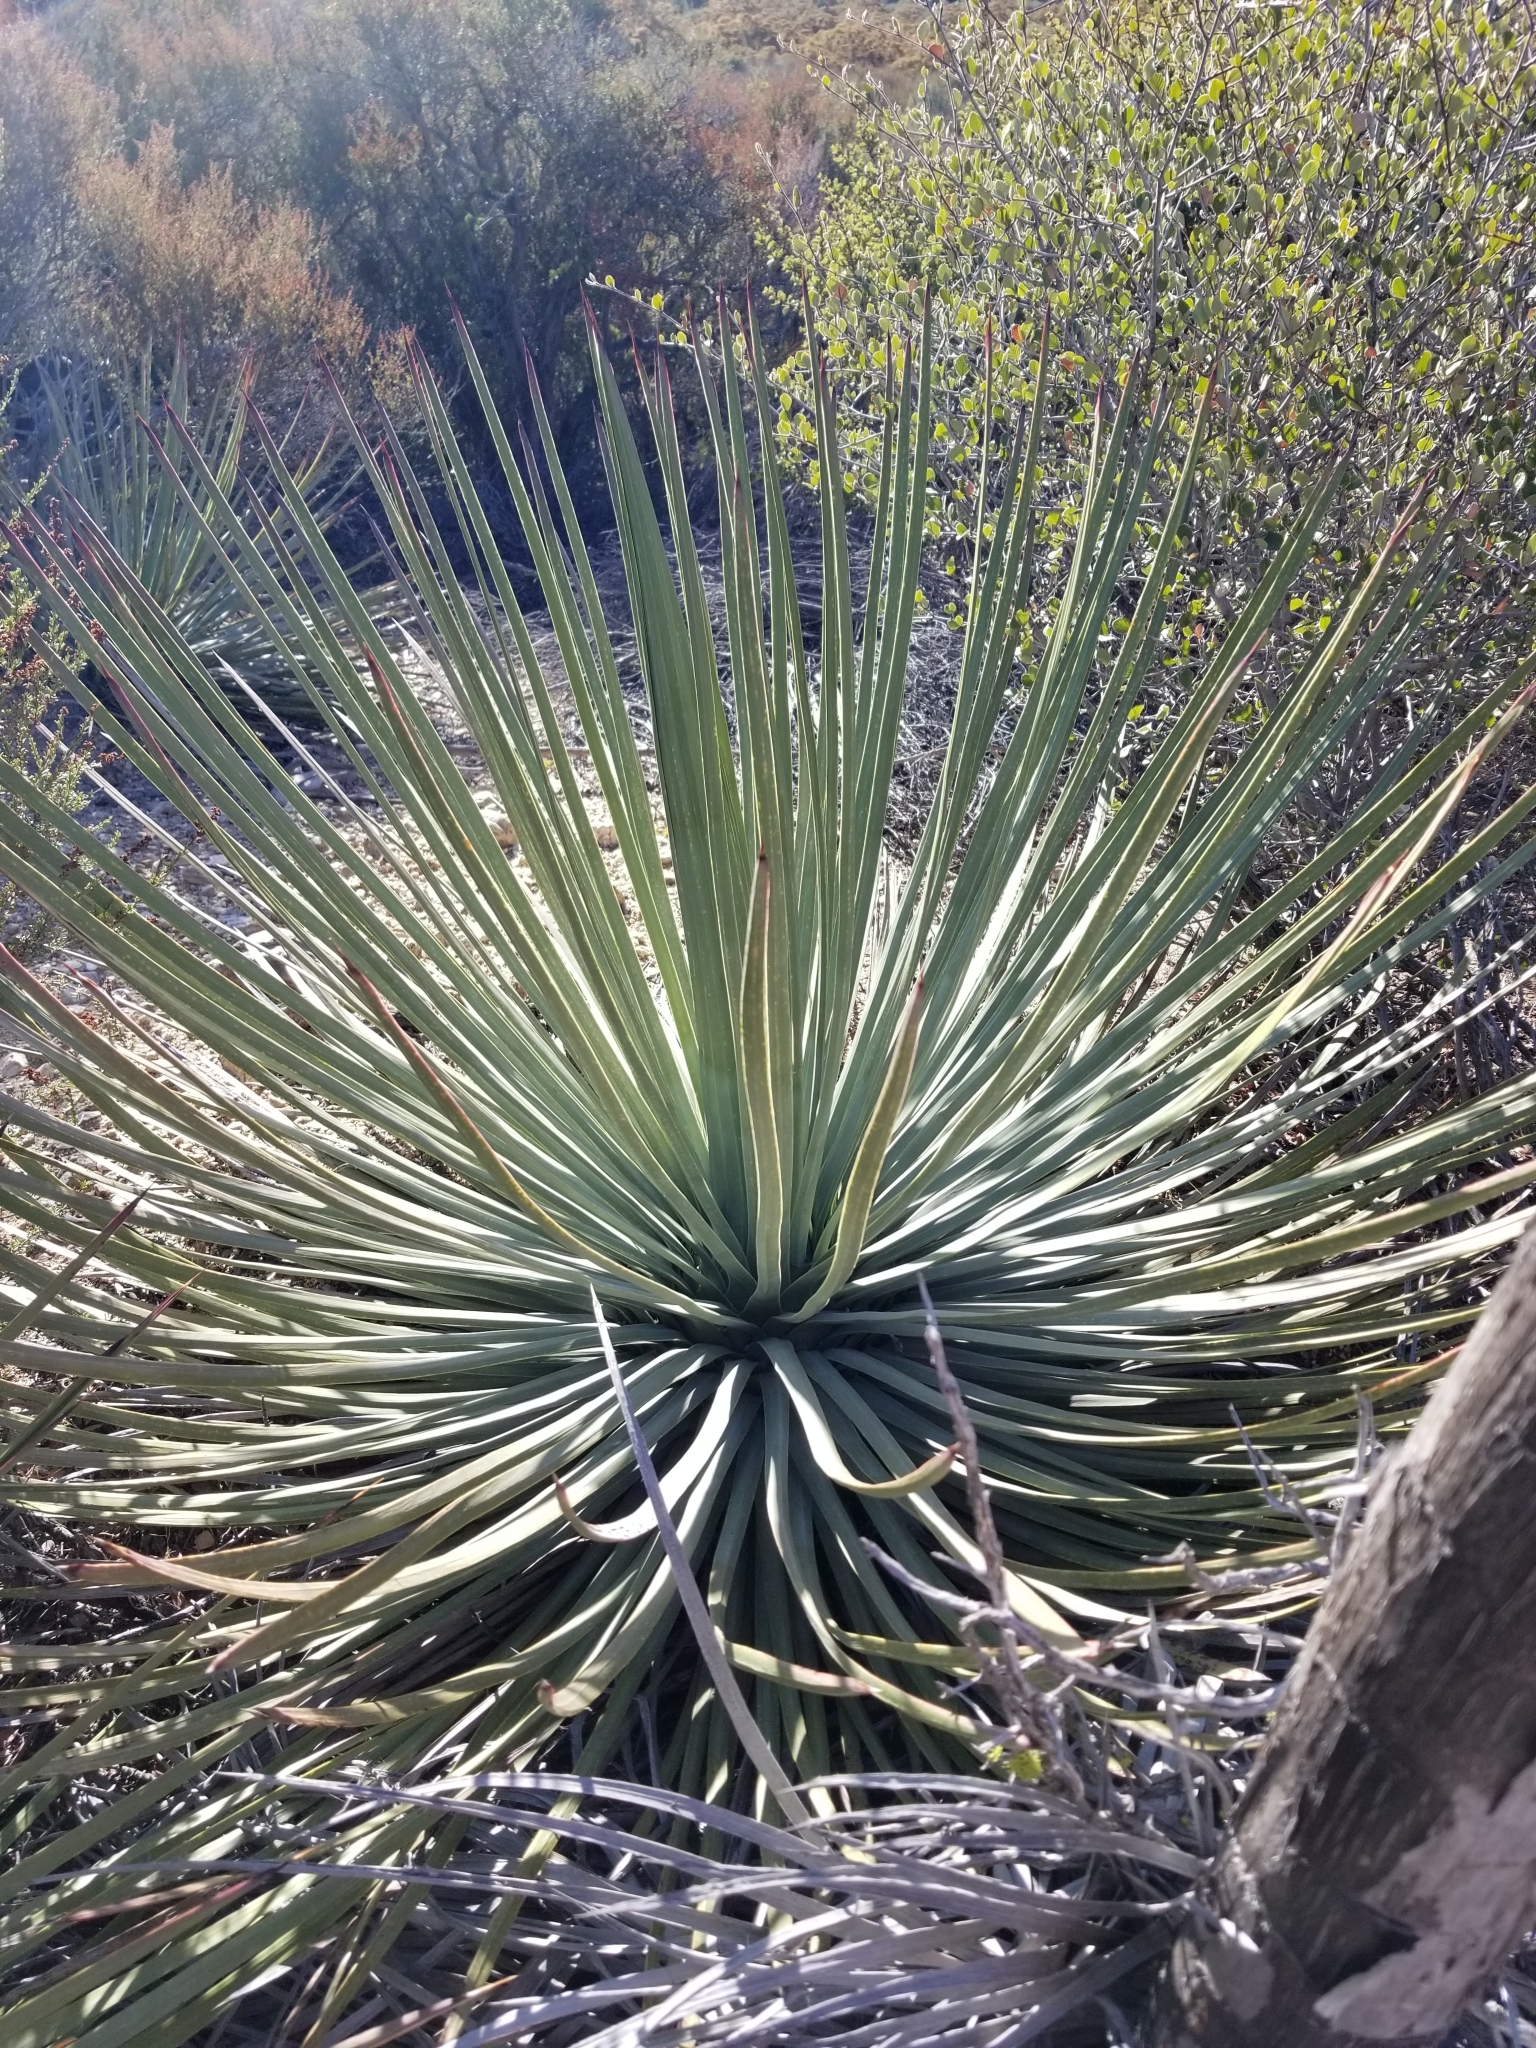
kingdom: Plantae
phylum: Tracheophyta
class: Liliopsida
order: Asparagales
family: Asparagaceae
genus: Hesperoyucca
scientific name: Hesperoyucca whipplei
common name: Our lord's-candle
